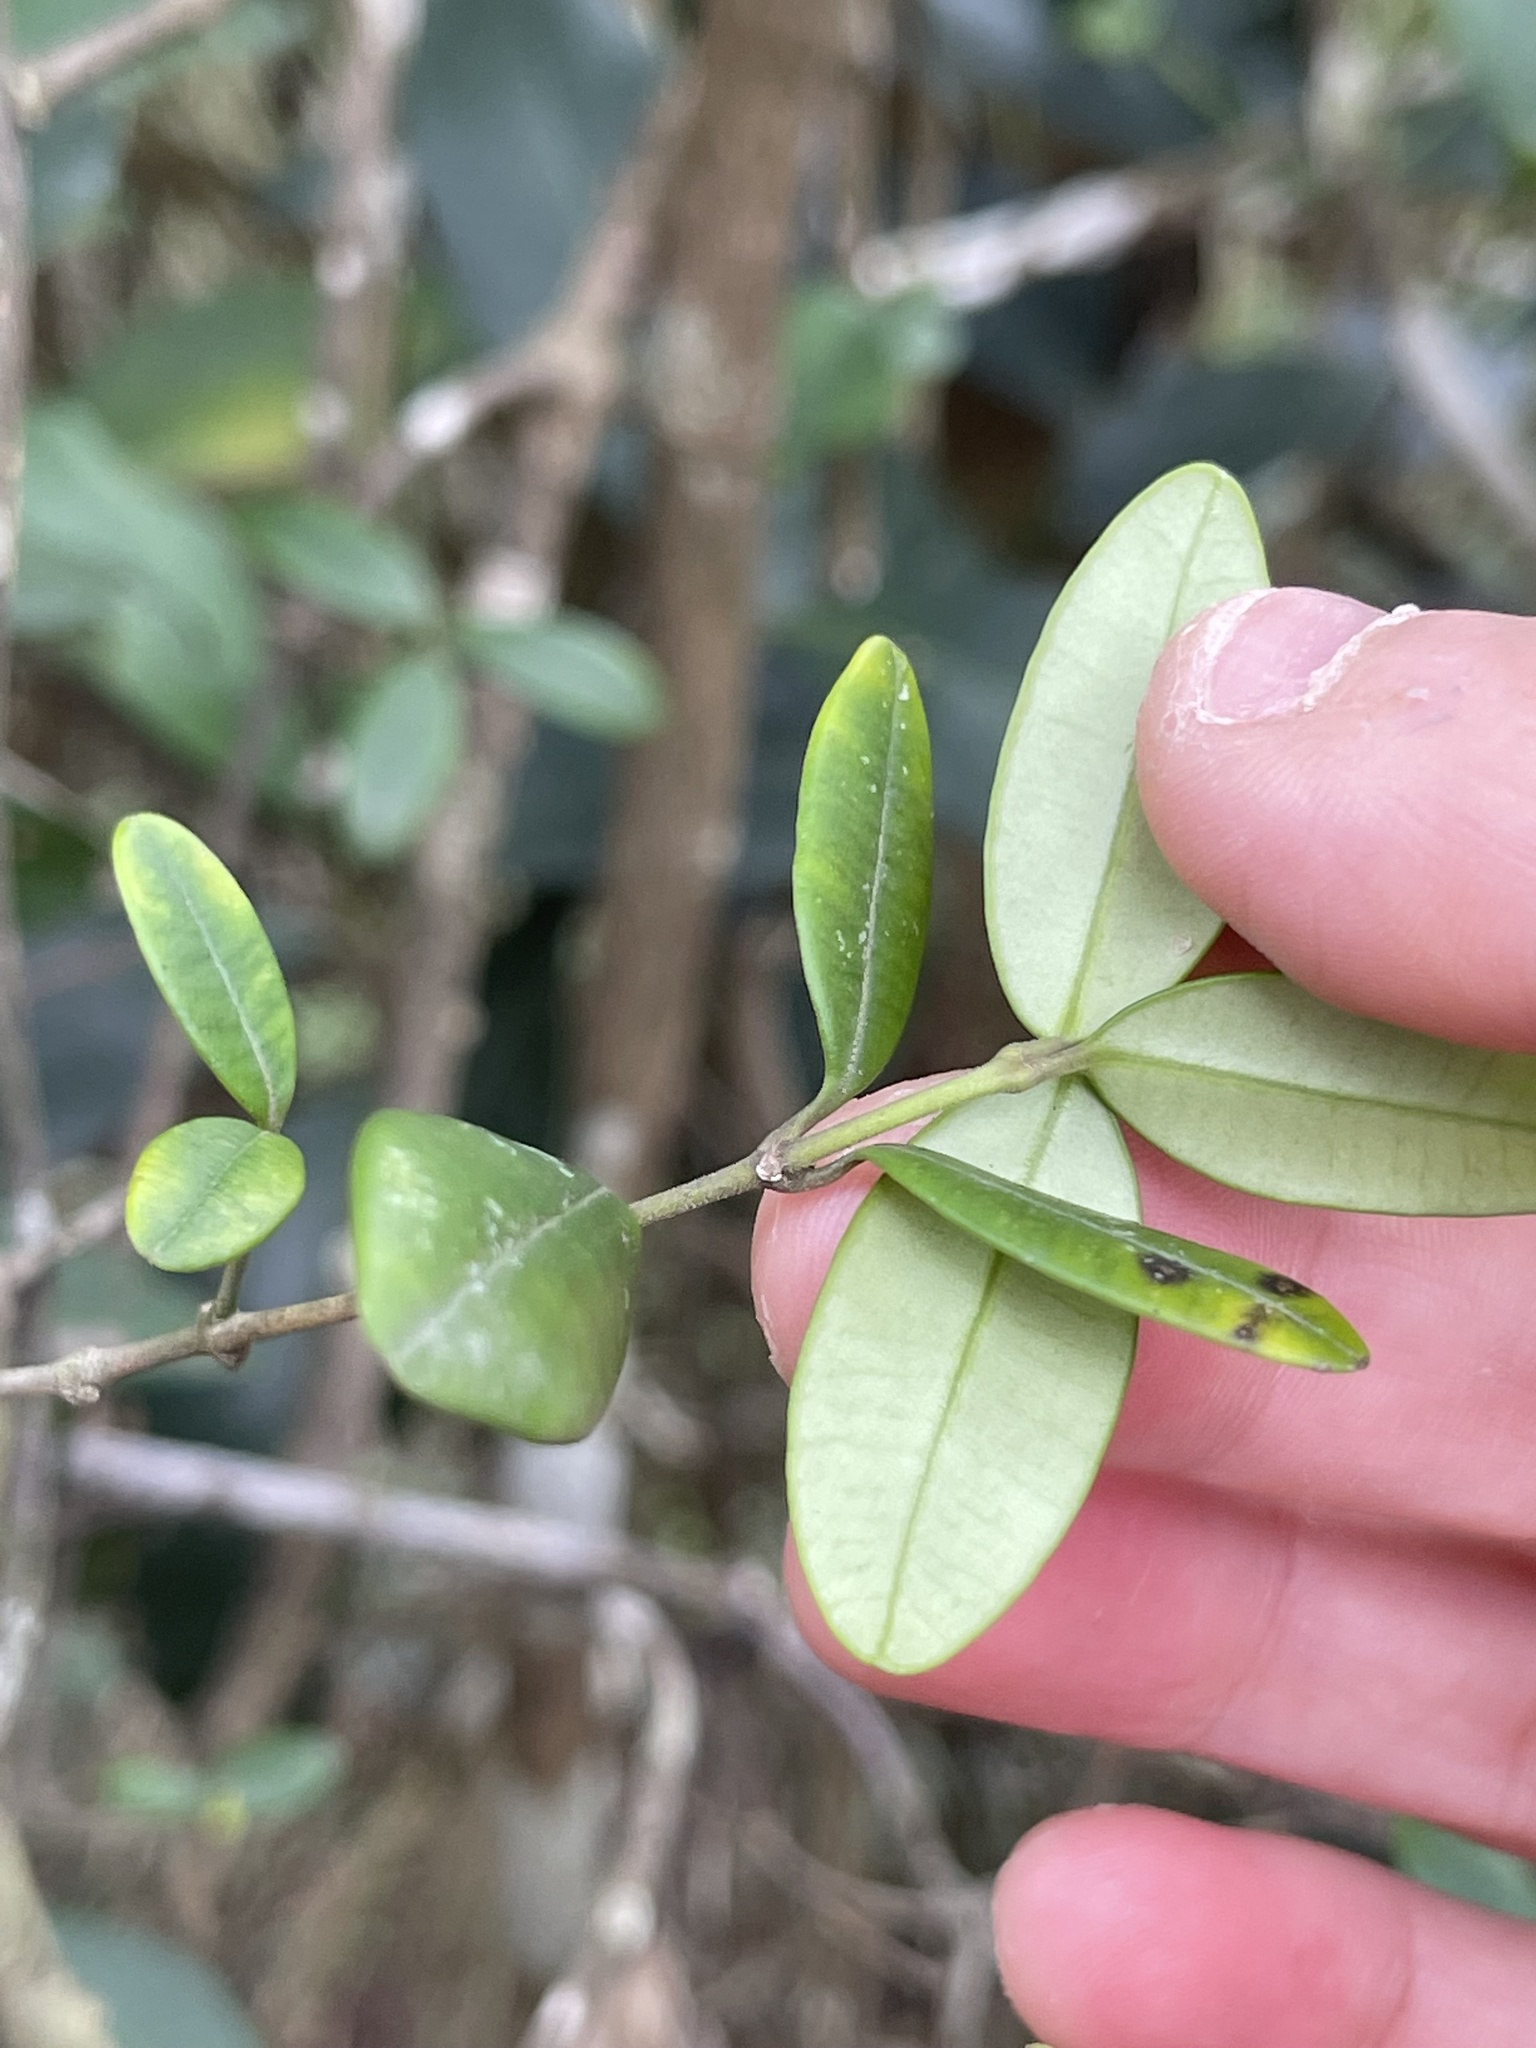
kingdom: Plantae
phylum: Tracheophyta
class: Magnoliopsida
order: Gentianales
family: Apocynaceae
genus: Alyxia
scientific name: Alyxia sinensis
